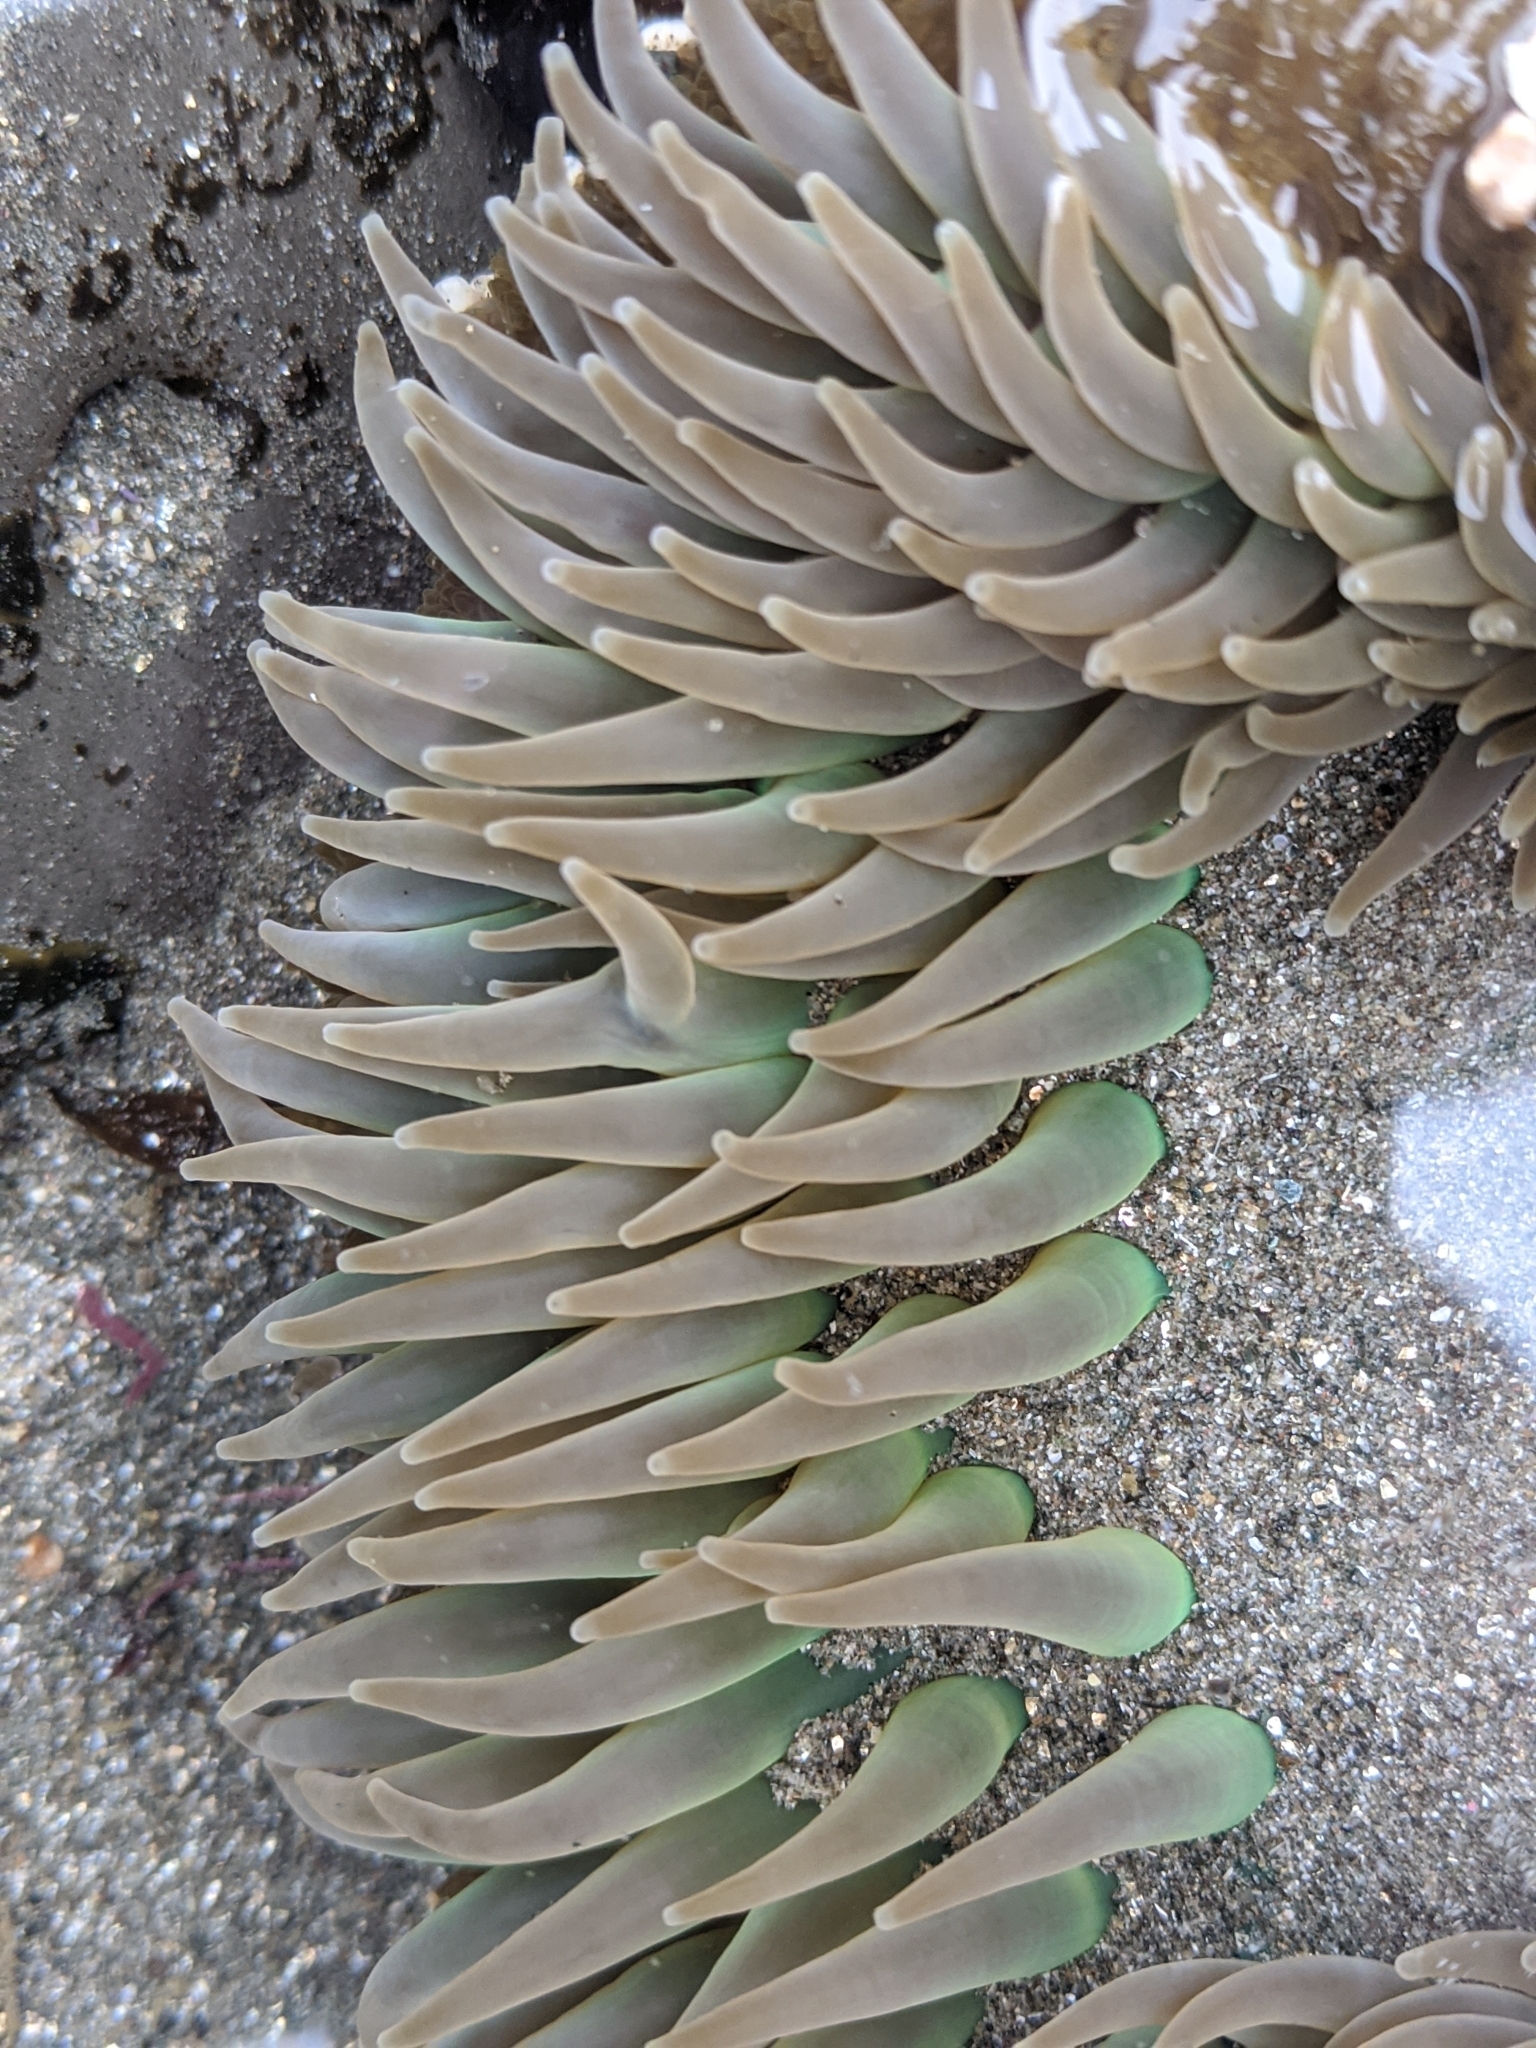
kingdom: Animalia
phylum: Cnidaria
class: Anthozoa
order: Actiniaria
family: Actiniidae
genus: Anthopleura
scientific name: Anthopleura xanthogrammica
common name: Giant green anemone
